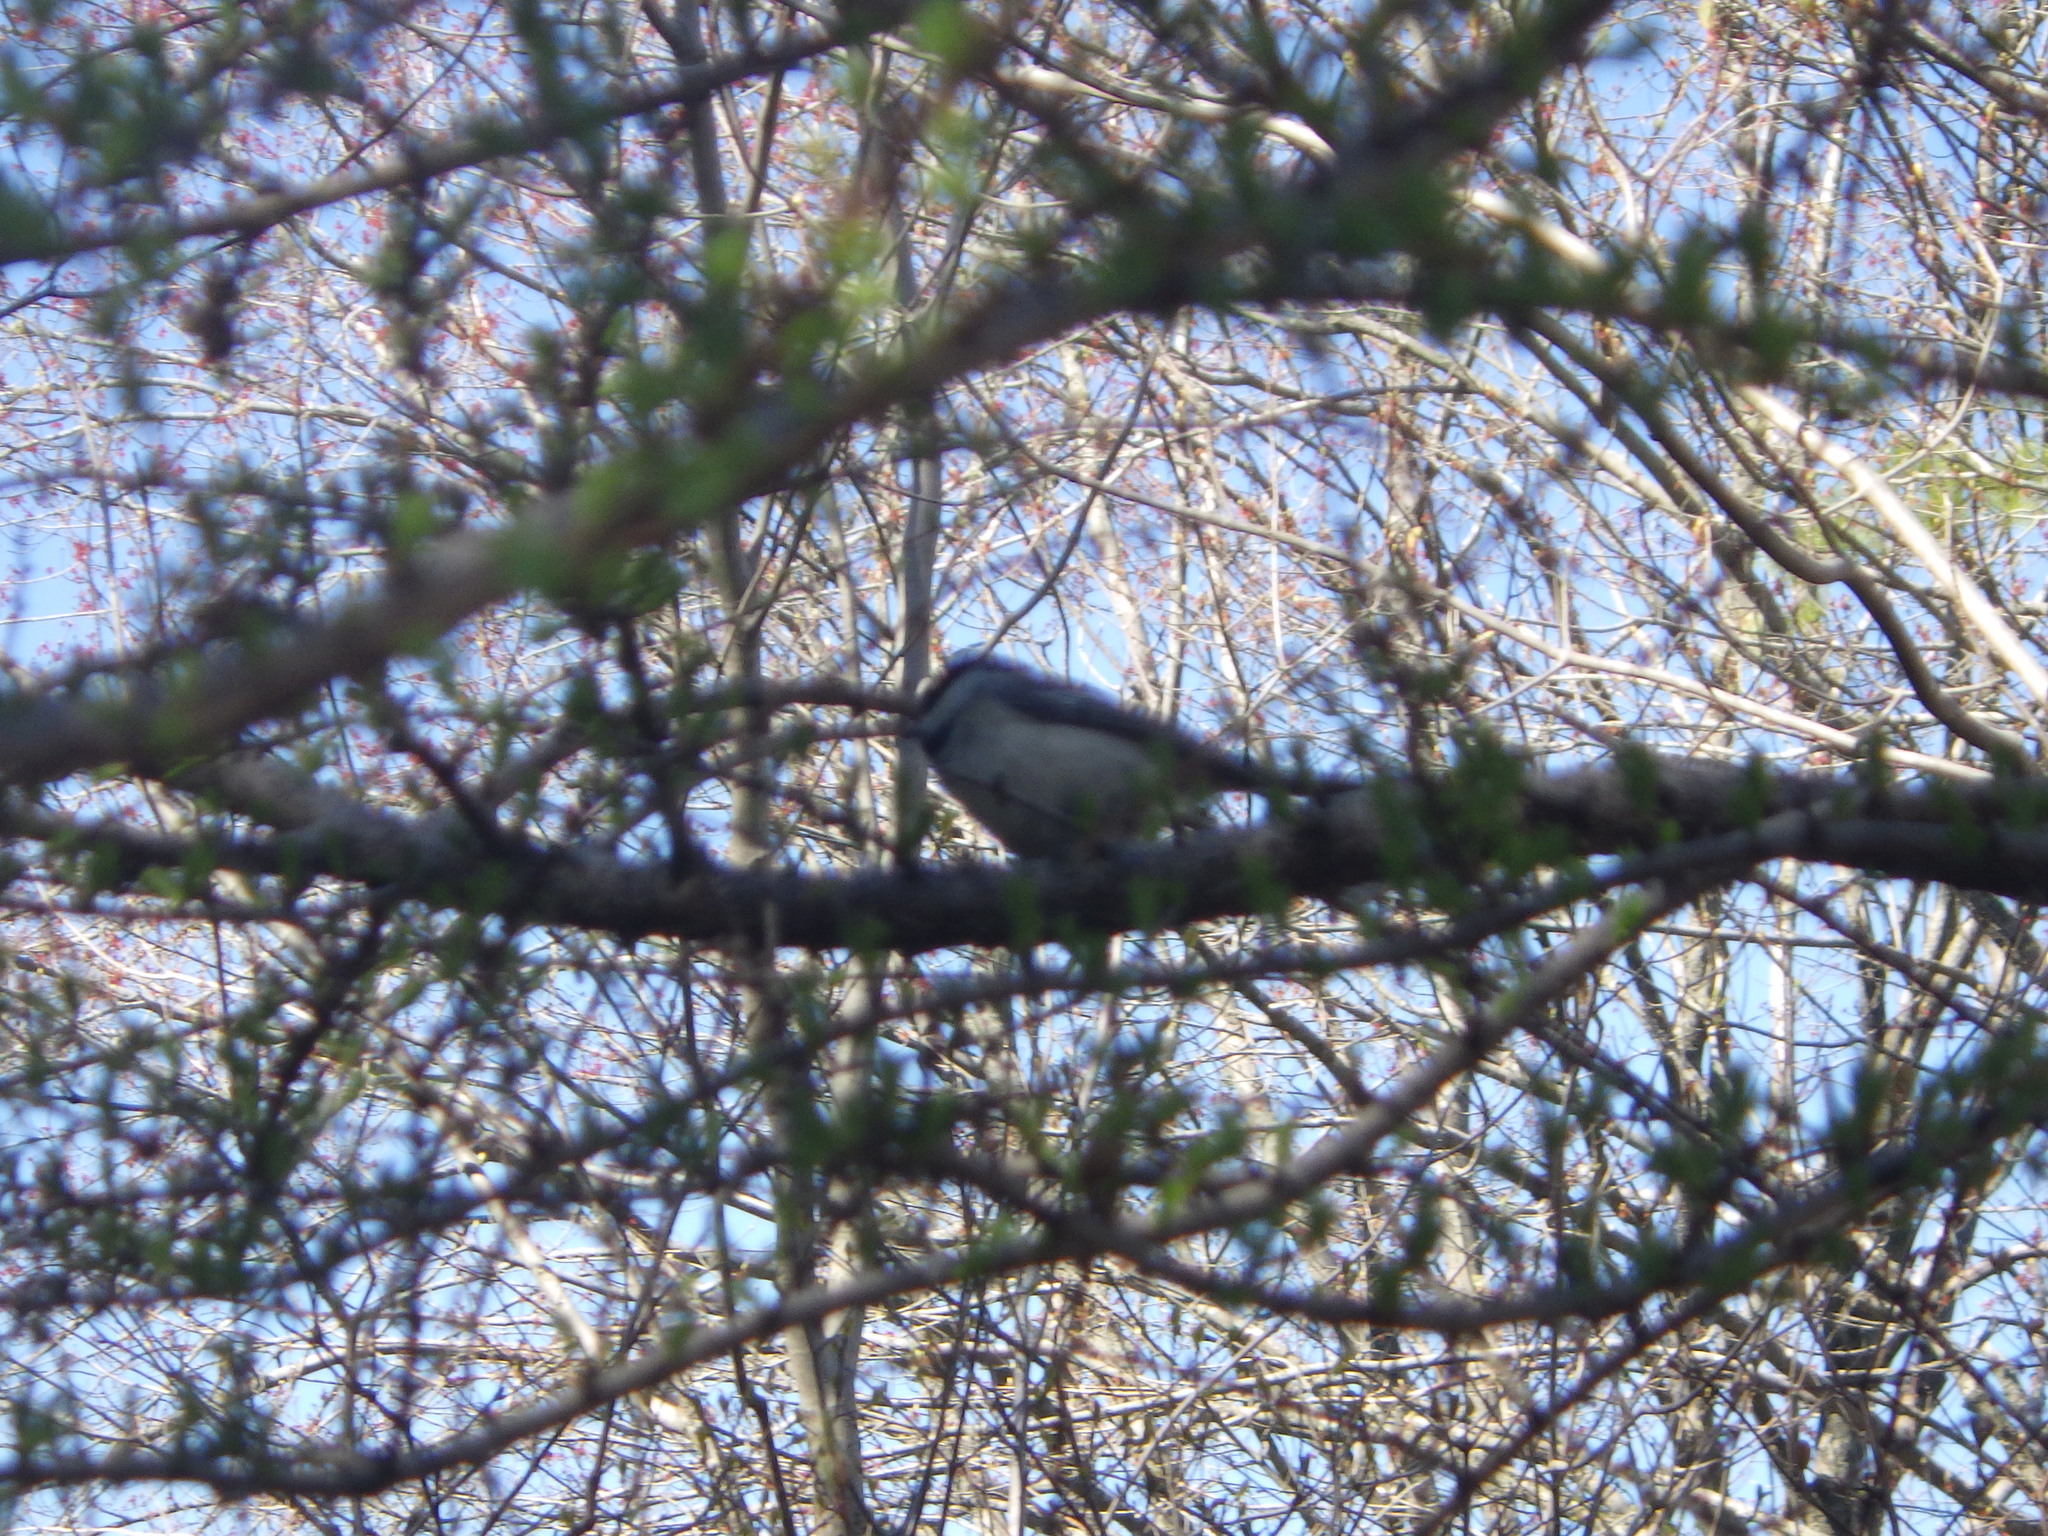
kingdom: Animalia
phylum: Chordata
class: Aves
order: Passeriformes
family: Paridae
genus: Poecile
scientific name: Poecile atricapillus
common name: Black-capped chickadee
